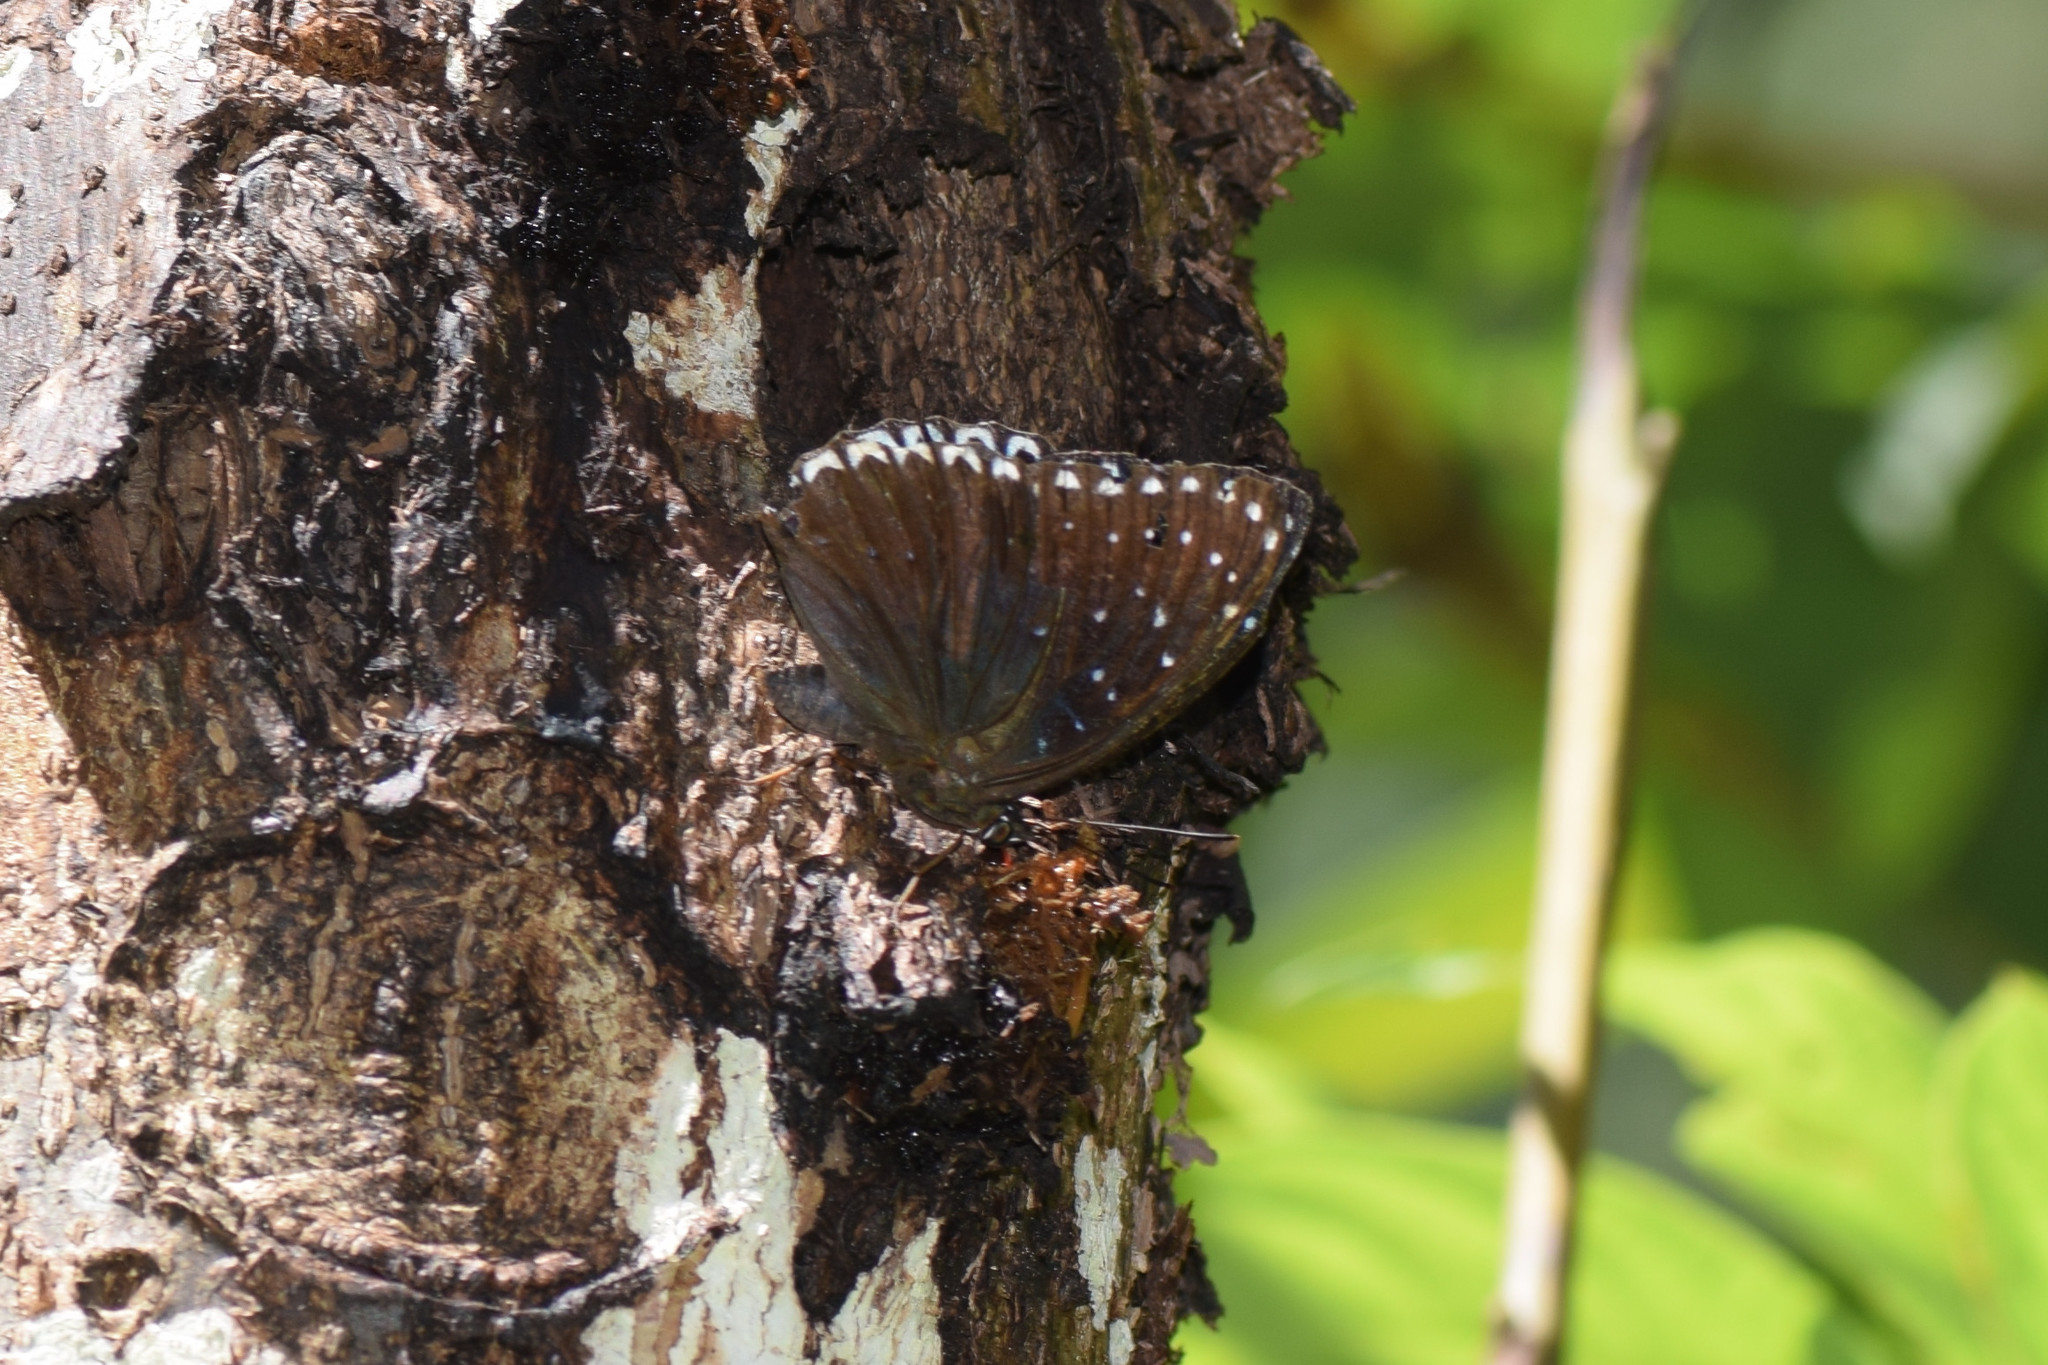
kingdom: Animalia
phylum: Arthropoda
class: Insecta
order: Lepidoptera
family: Nymphalidae
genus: Stibochiona
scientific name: Stibochiona nicea
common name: Popinjay
